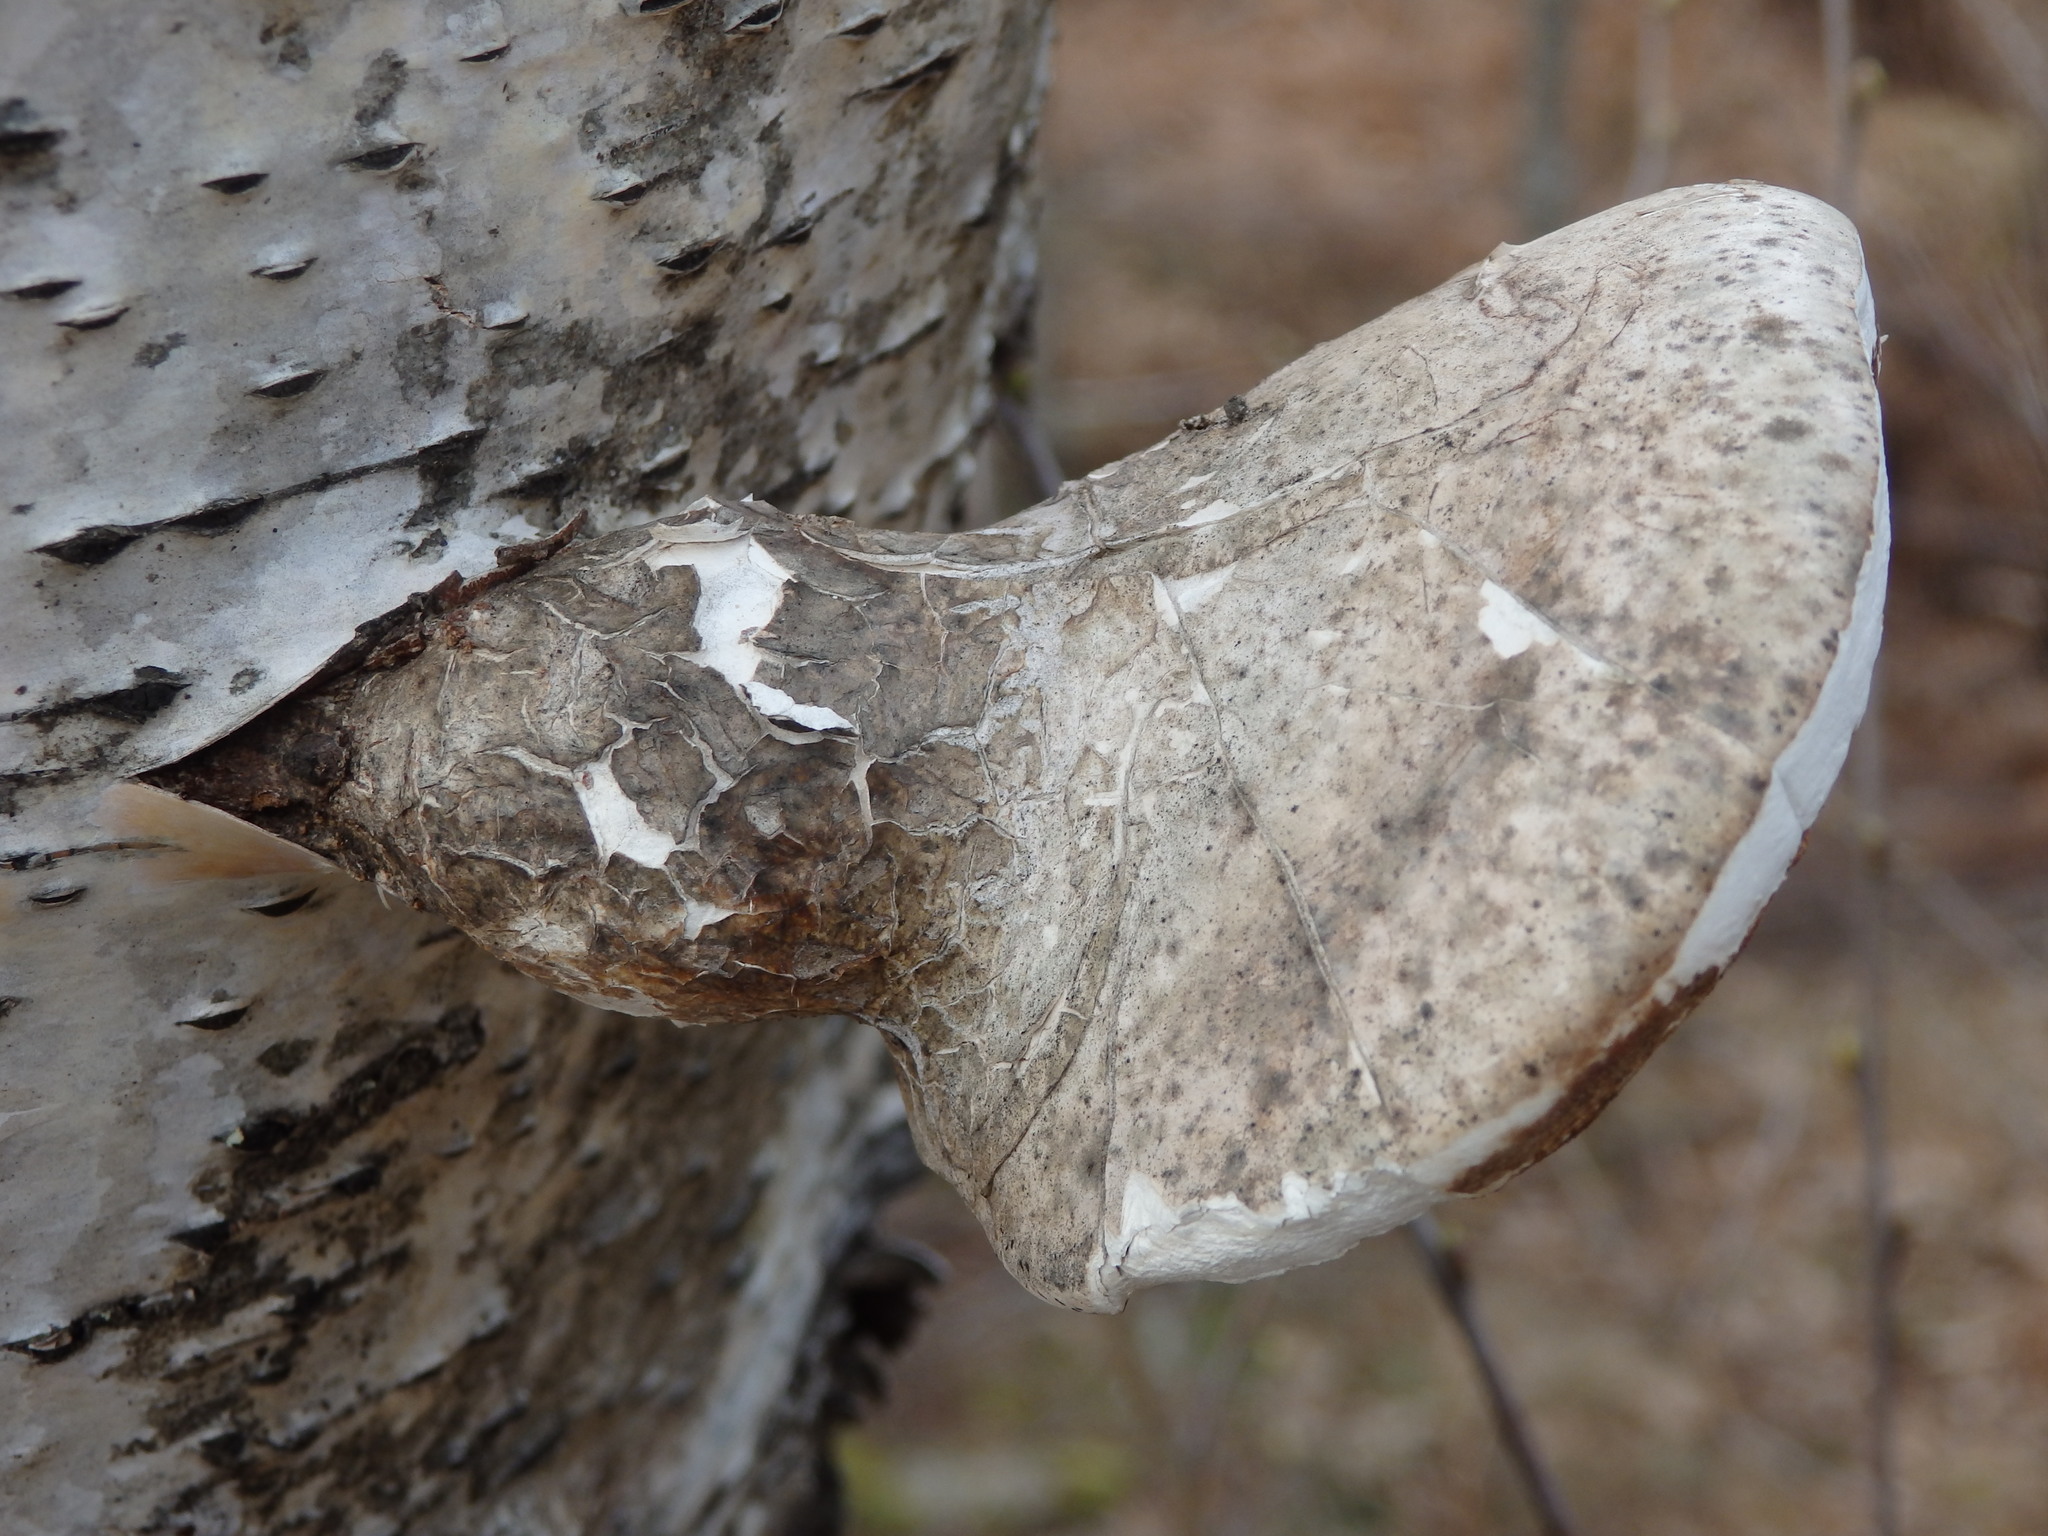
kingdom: Fungi
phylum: Basidiomycota
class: Agaricomycetes
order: Polyporales
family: Fomitopsidaceae
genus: Fomitopsis
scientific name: Fomitopsis betulina
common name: Birch polypore
